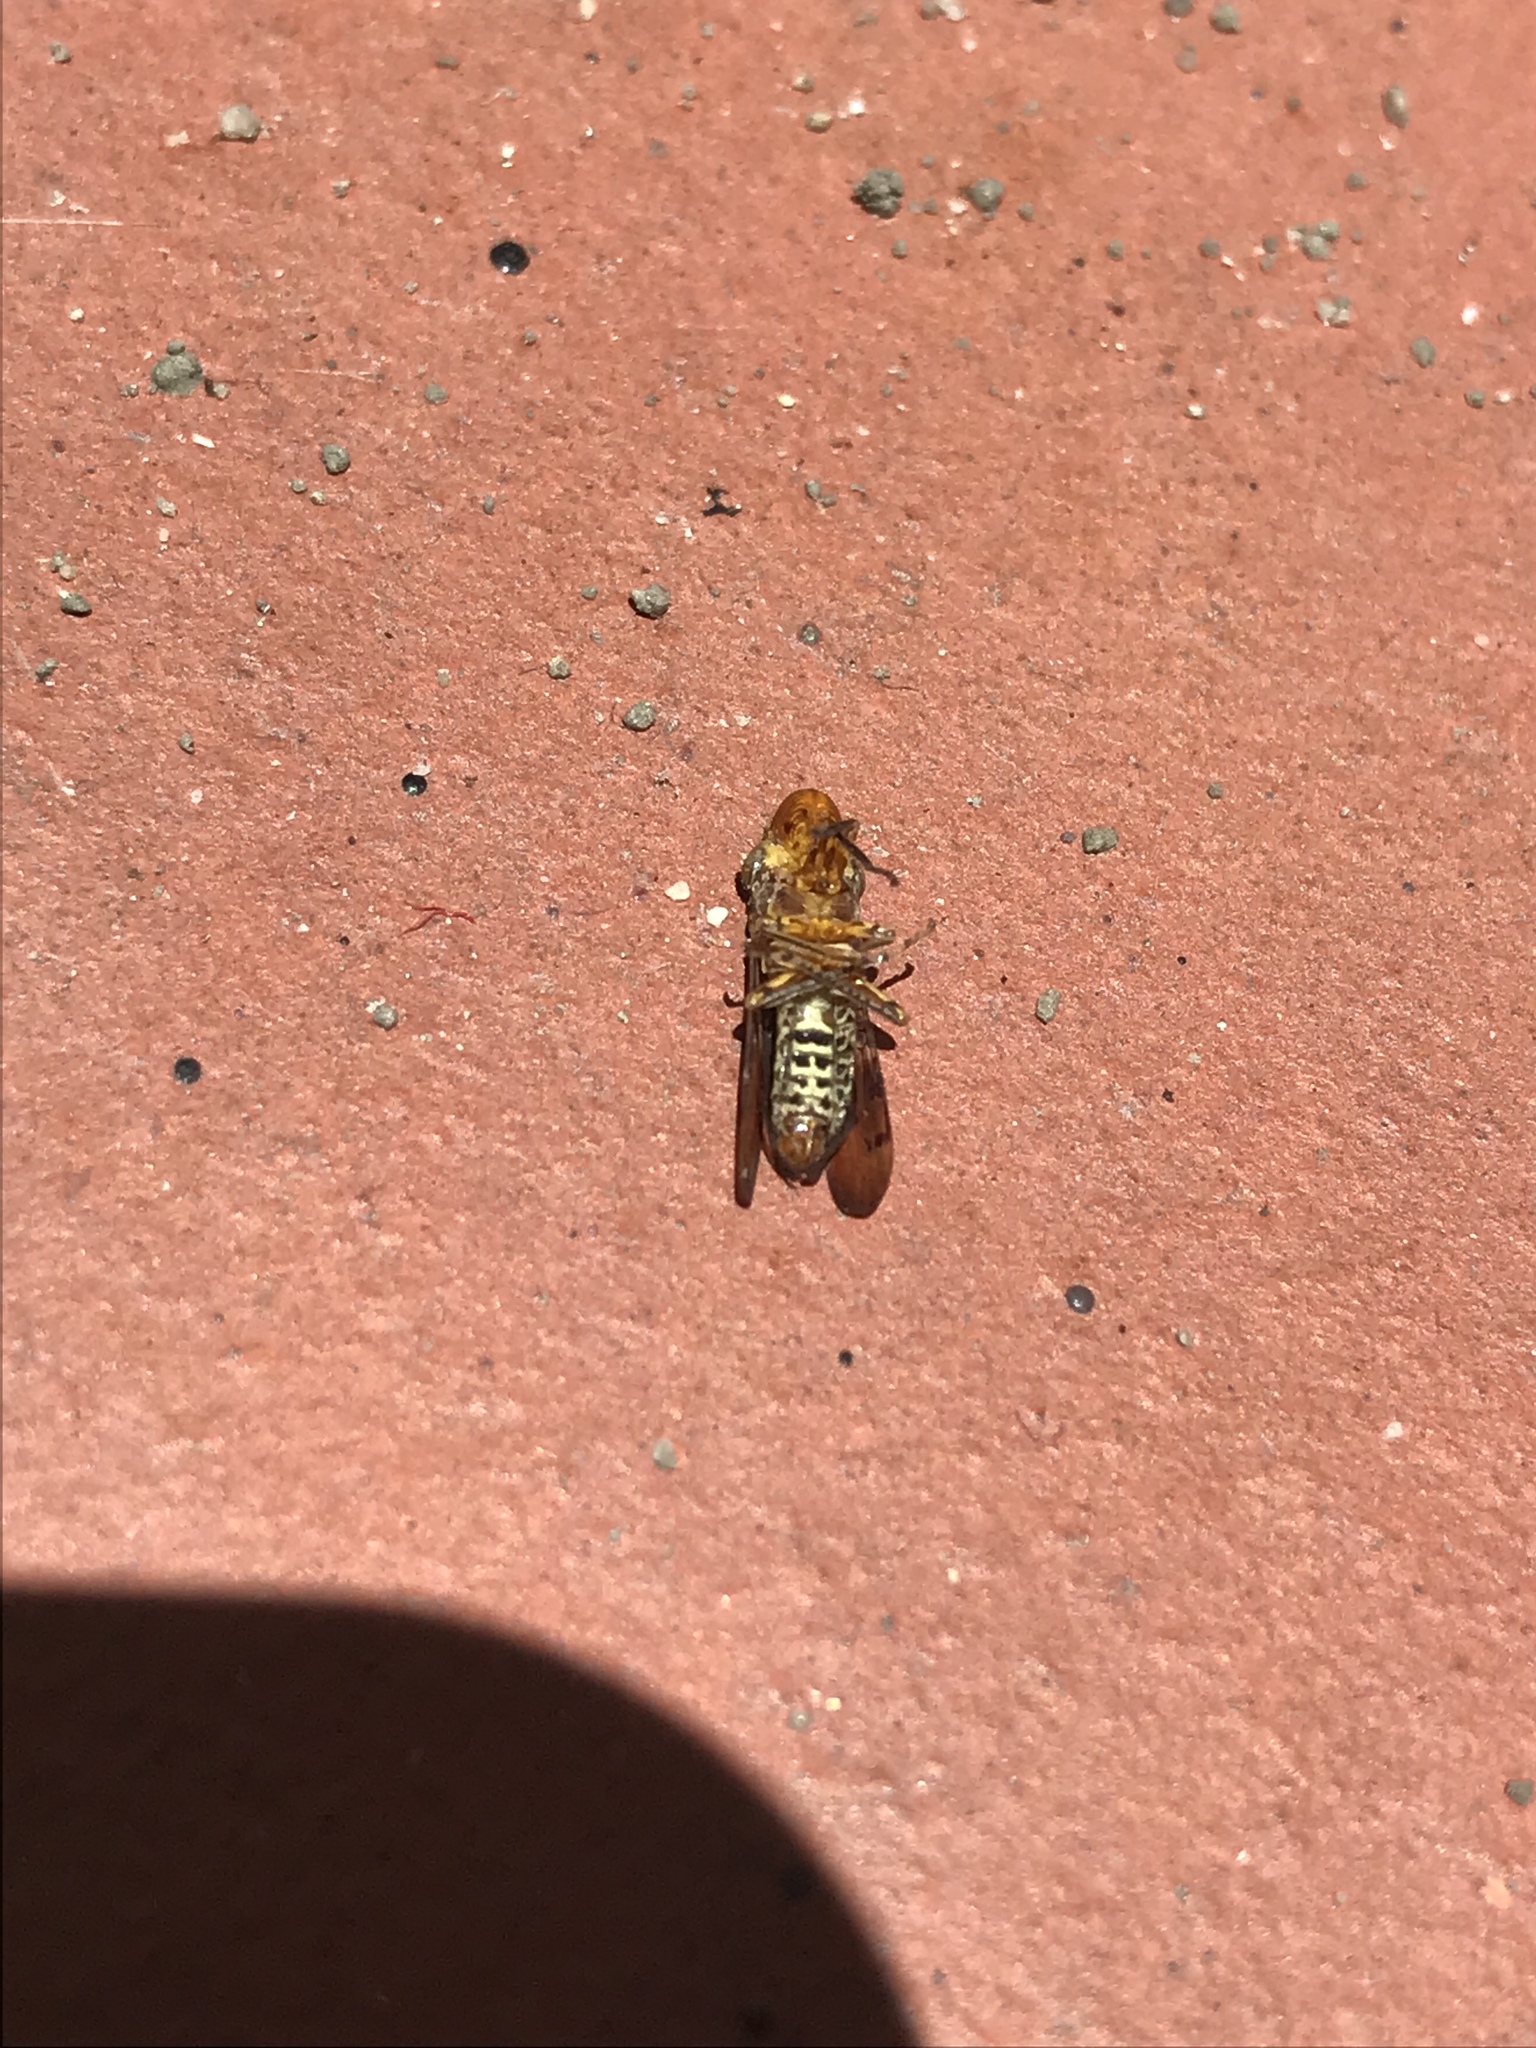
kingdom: Animalia
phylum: Arthropoda
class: Insecta
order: Hemiptera
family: Cicadellidae
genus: Homalodisca
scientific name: Homalodisca vitripennis
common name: Glassy-winged sharpshooter
